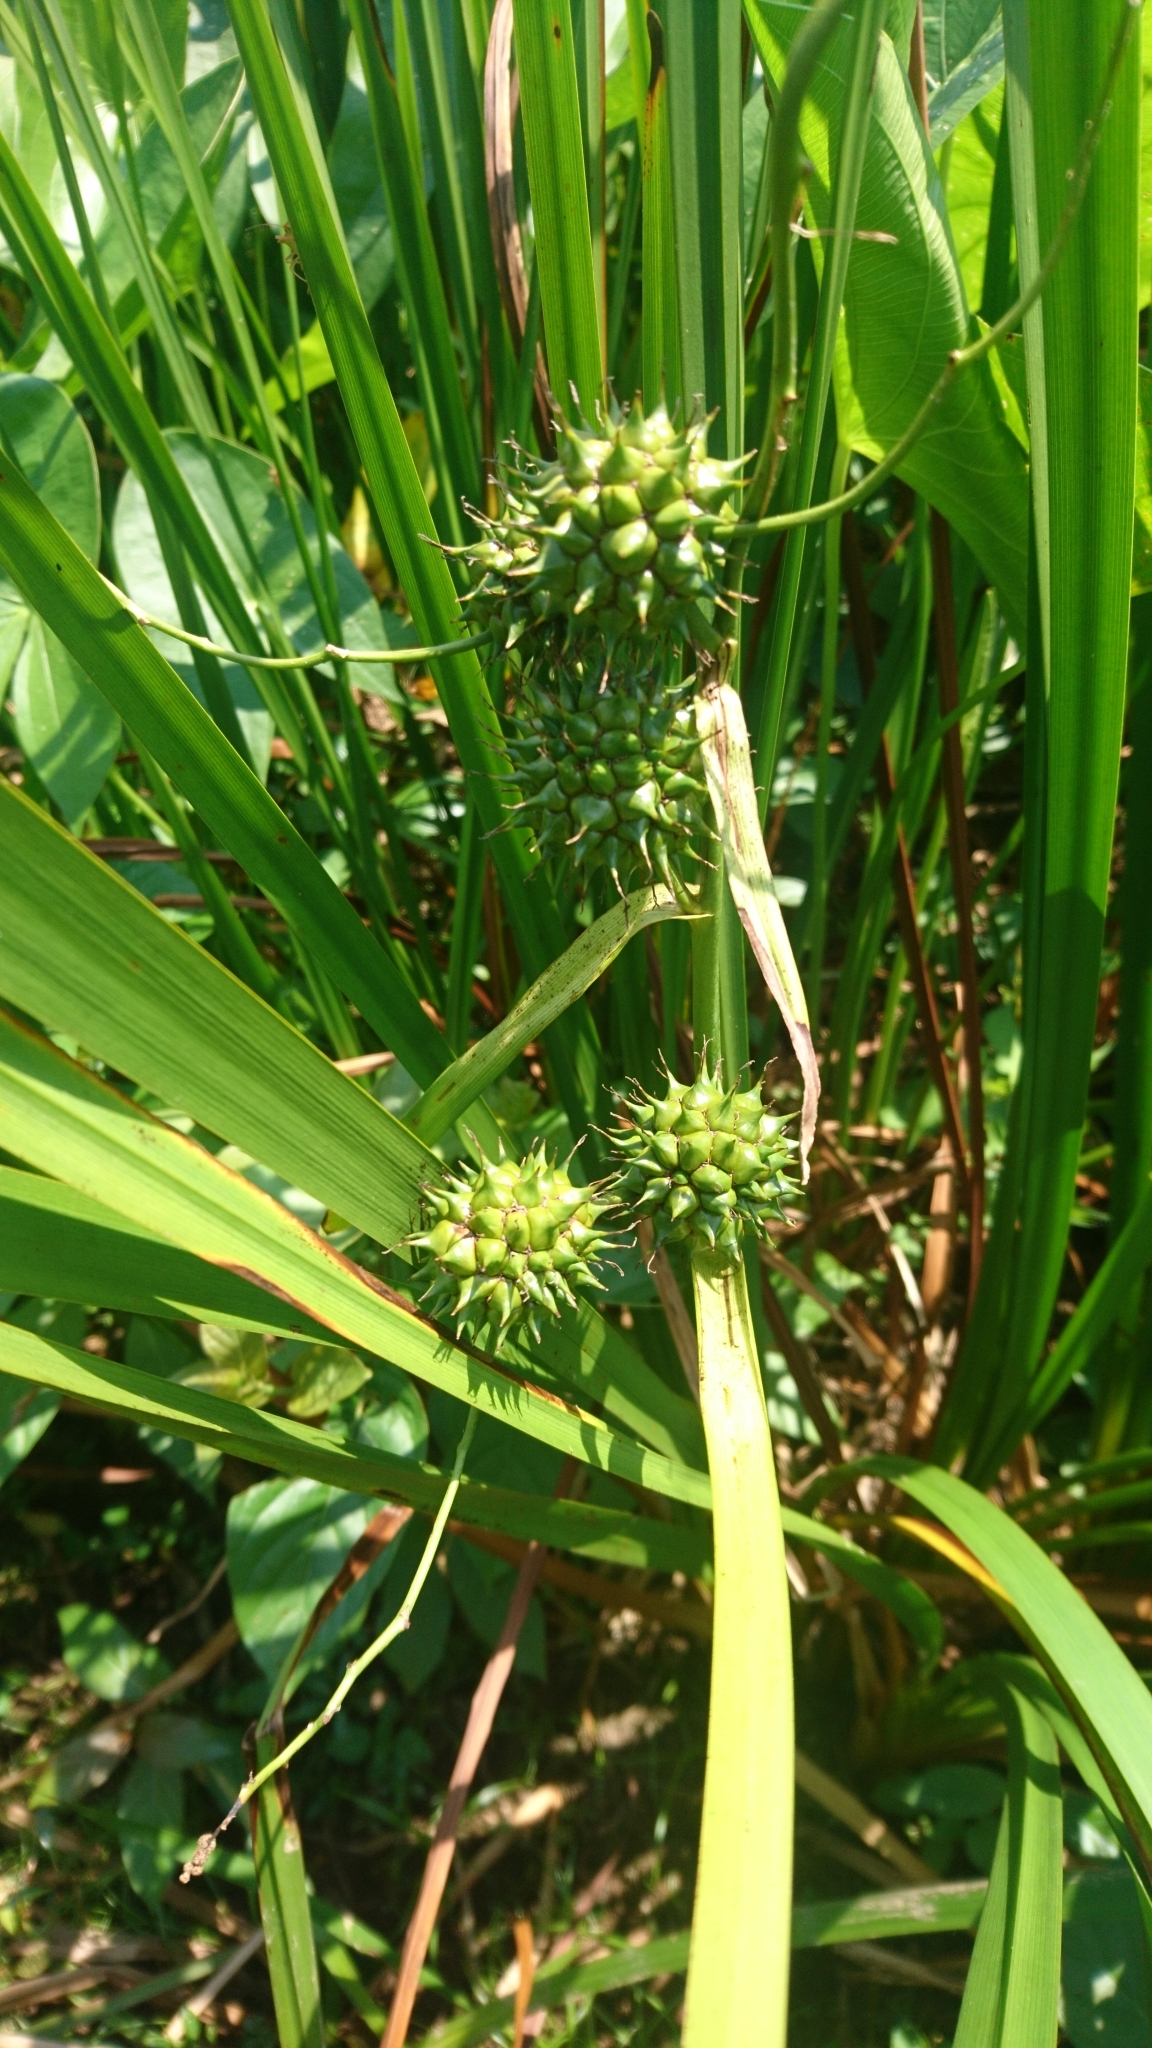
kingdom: Plantae
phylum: Tracheophyta
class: Liliopsida
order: Poales
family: Typhaceae
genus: Sparganium
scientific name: Sparganium eurycarpum
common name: Broad-fruited burreed
